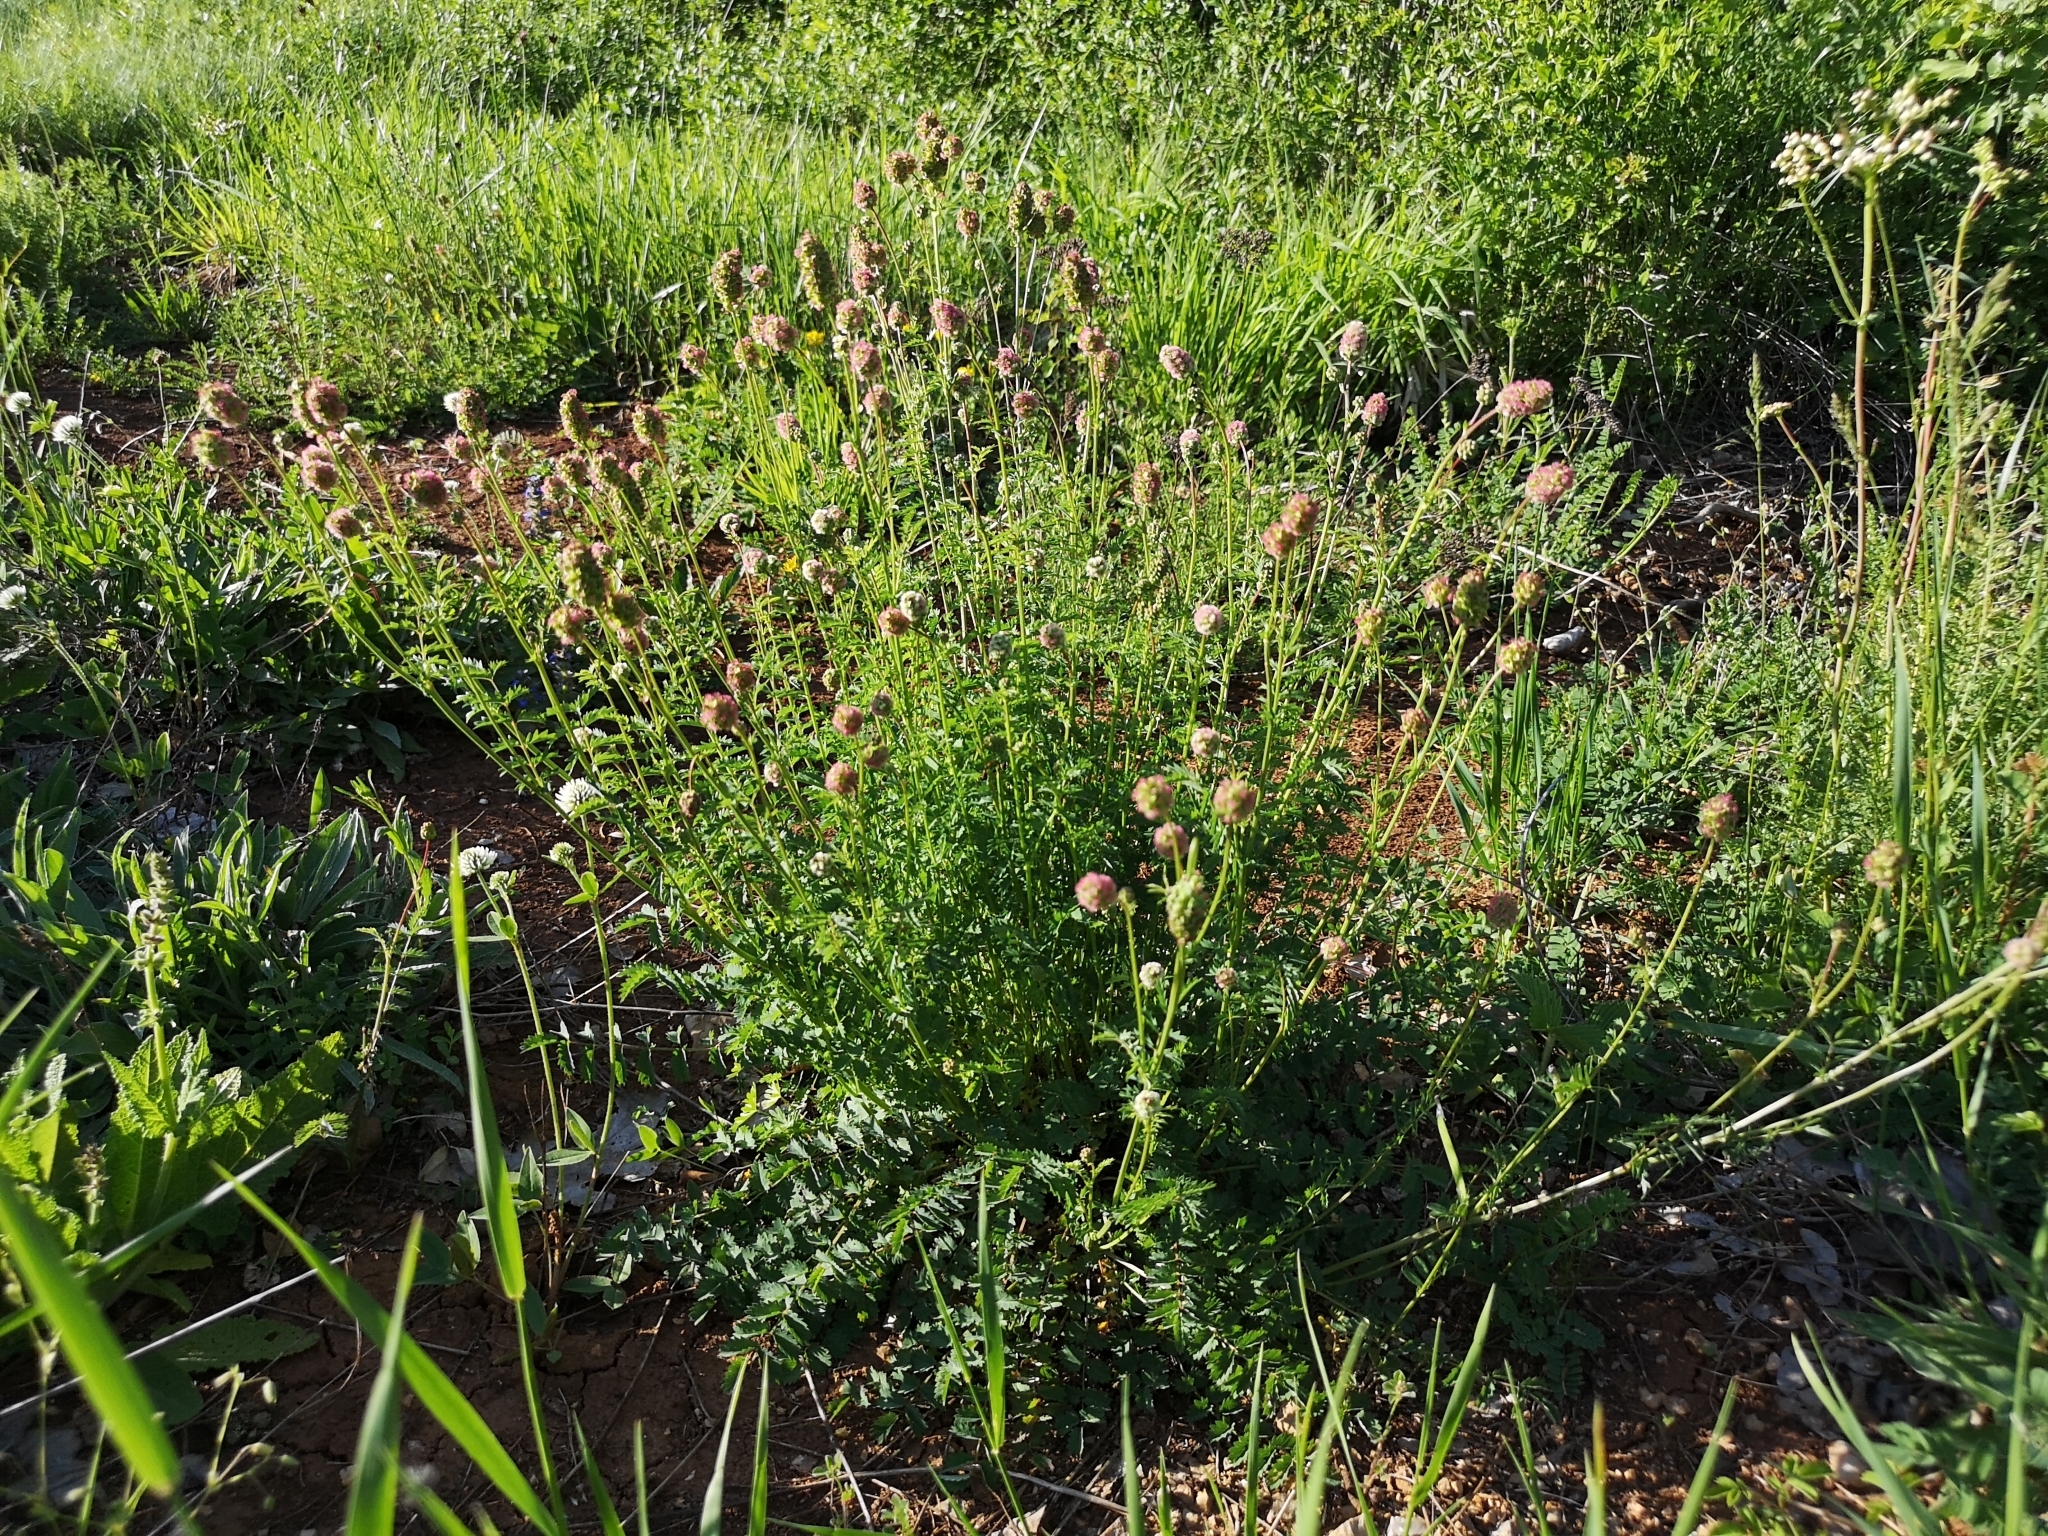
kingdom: Plantae
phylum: Tracheophyta
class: Magnoliopsida
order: Rosales
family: Rosaceae
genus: Poterium
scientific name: Poterium sanguisorba
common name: Salad burnet
